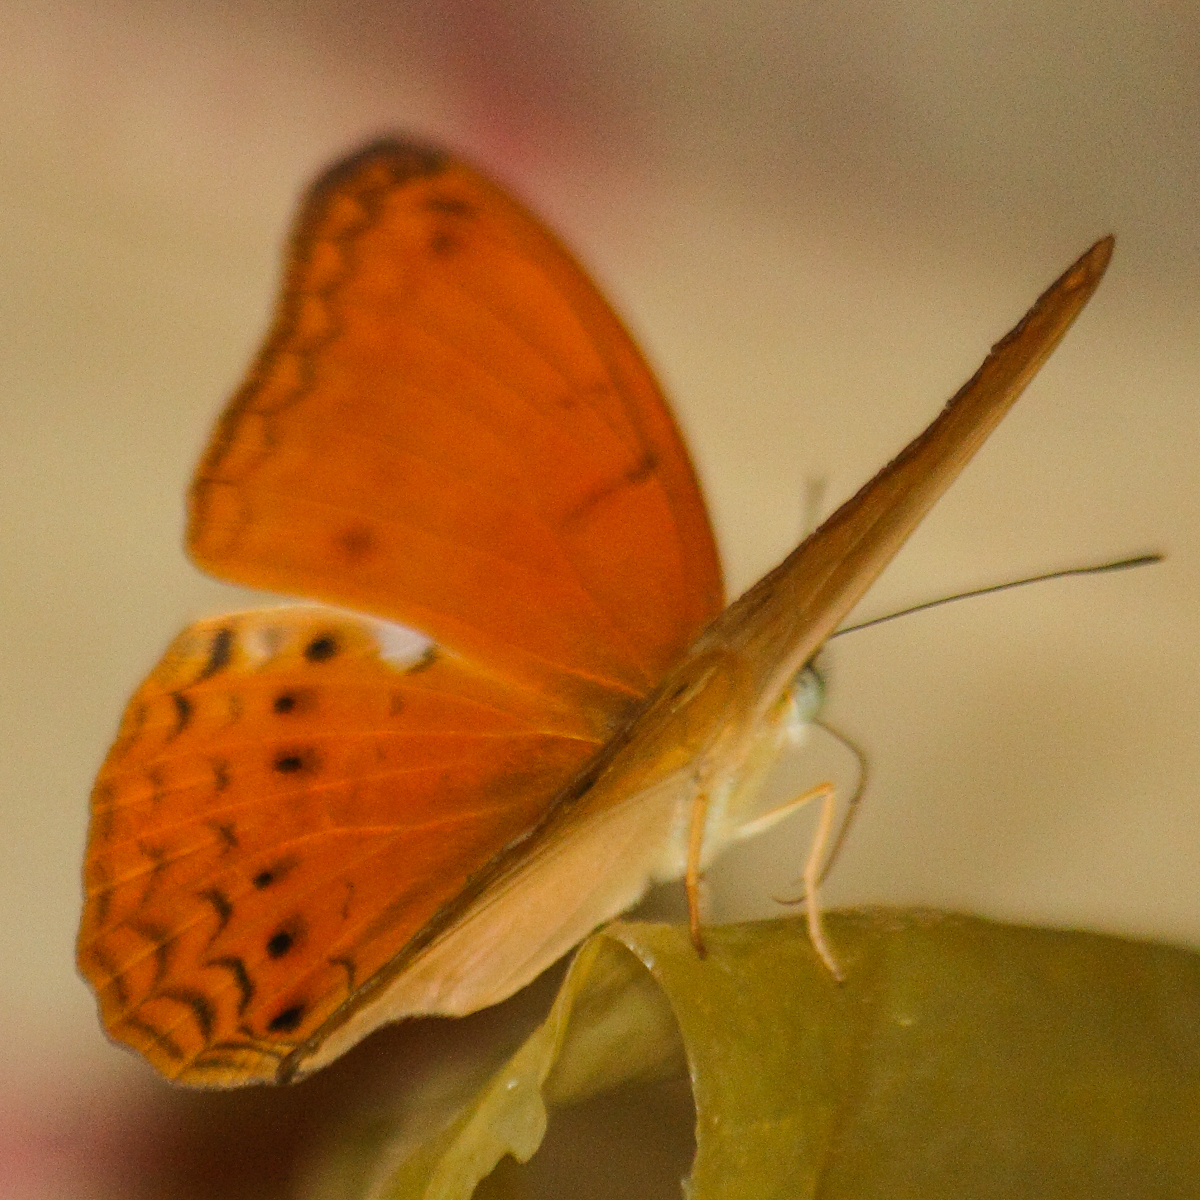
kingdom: Animalia
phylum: Arthropoda
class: Insecta
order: Lepidoptera
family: Nymphalidae
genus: Cirrochroa
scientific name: Cirrochroa tyche
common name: Common yeoman
